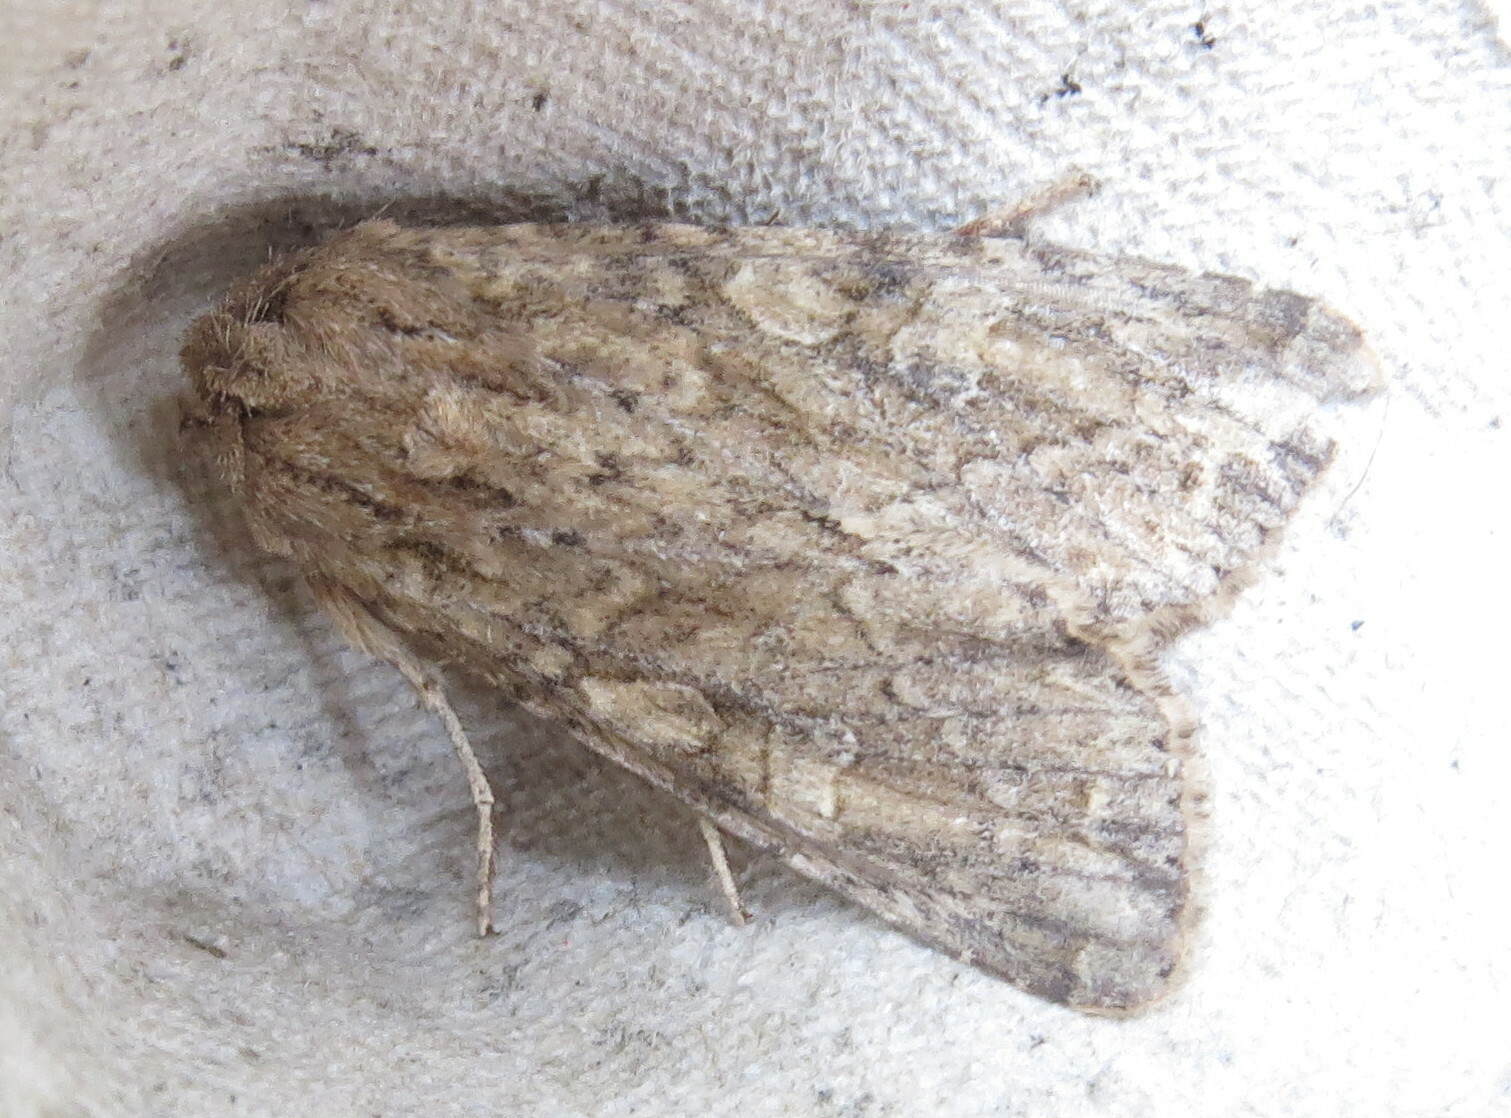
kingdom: Animalia
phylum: Arthropoda
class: Insecta
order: Lepidoptera
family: Noctuidae
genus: Apamea
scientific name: Apamea anceps
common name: Large nutmeg
